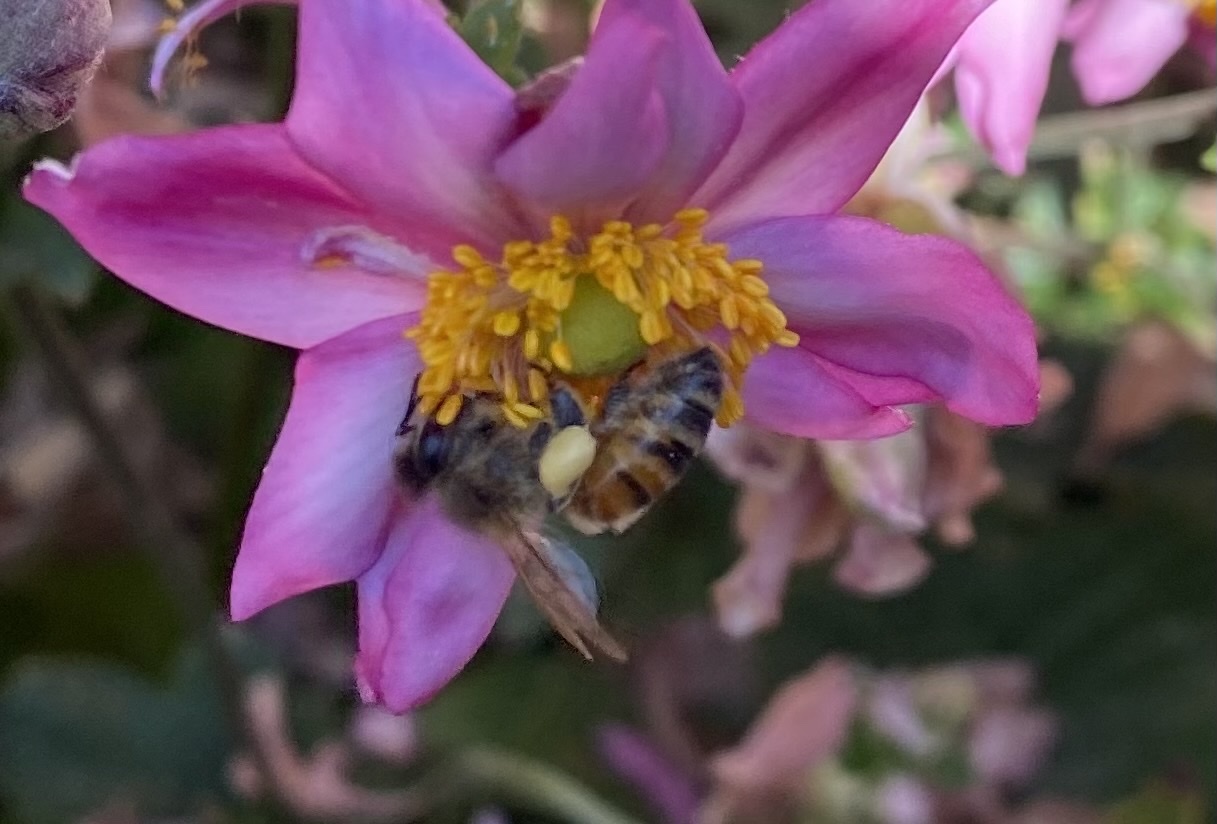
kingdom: Animalia
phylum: Arthropoda
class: Insecta
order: Hymenoptera
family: Apidae
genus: Apis
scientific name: Apis mellifera
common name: Honey bee
